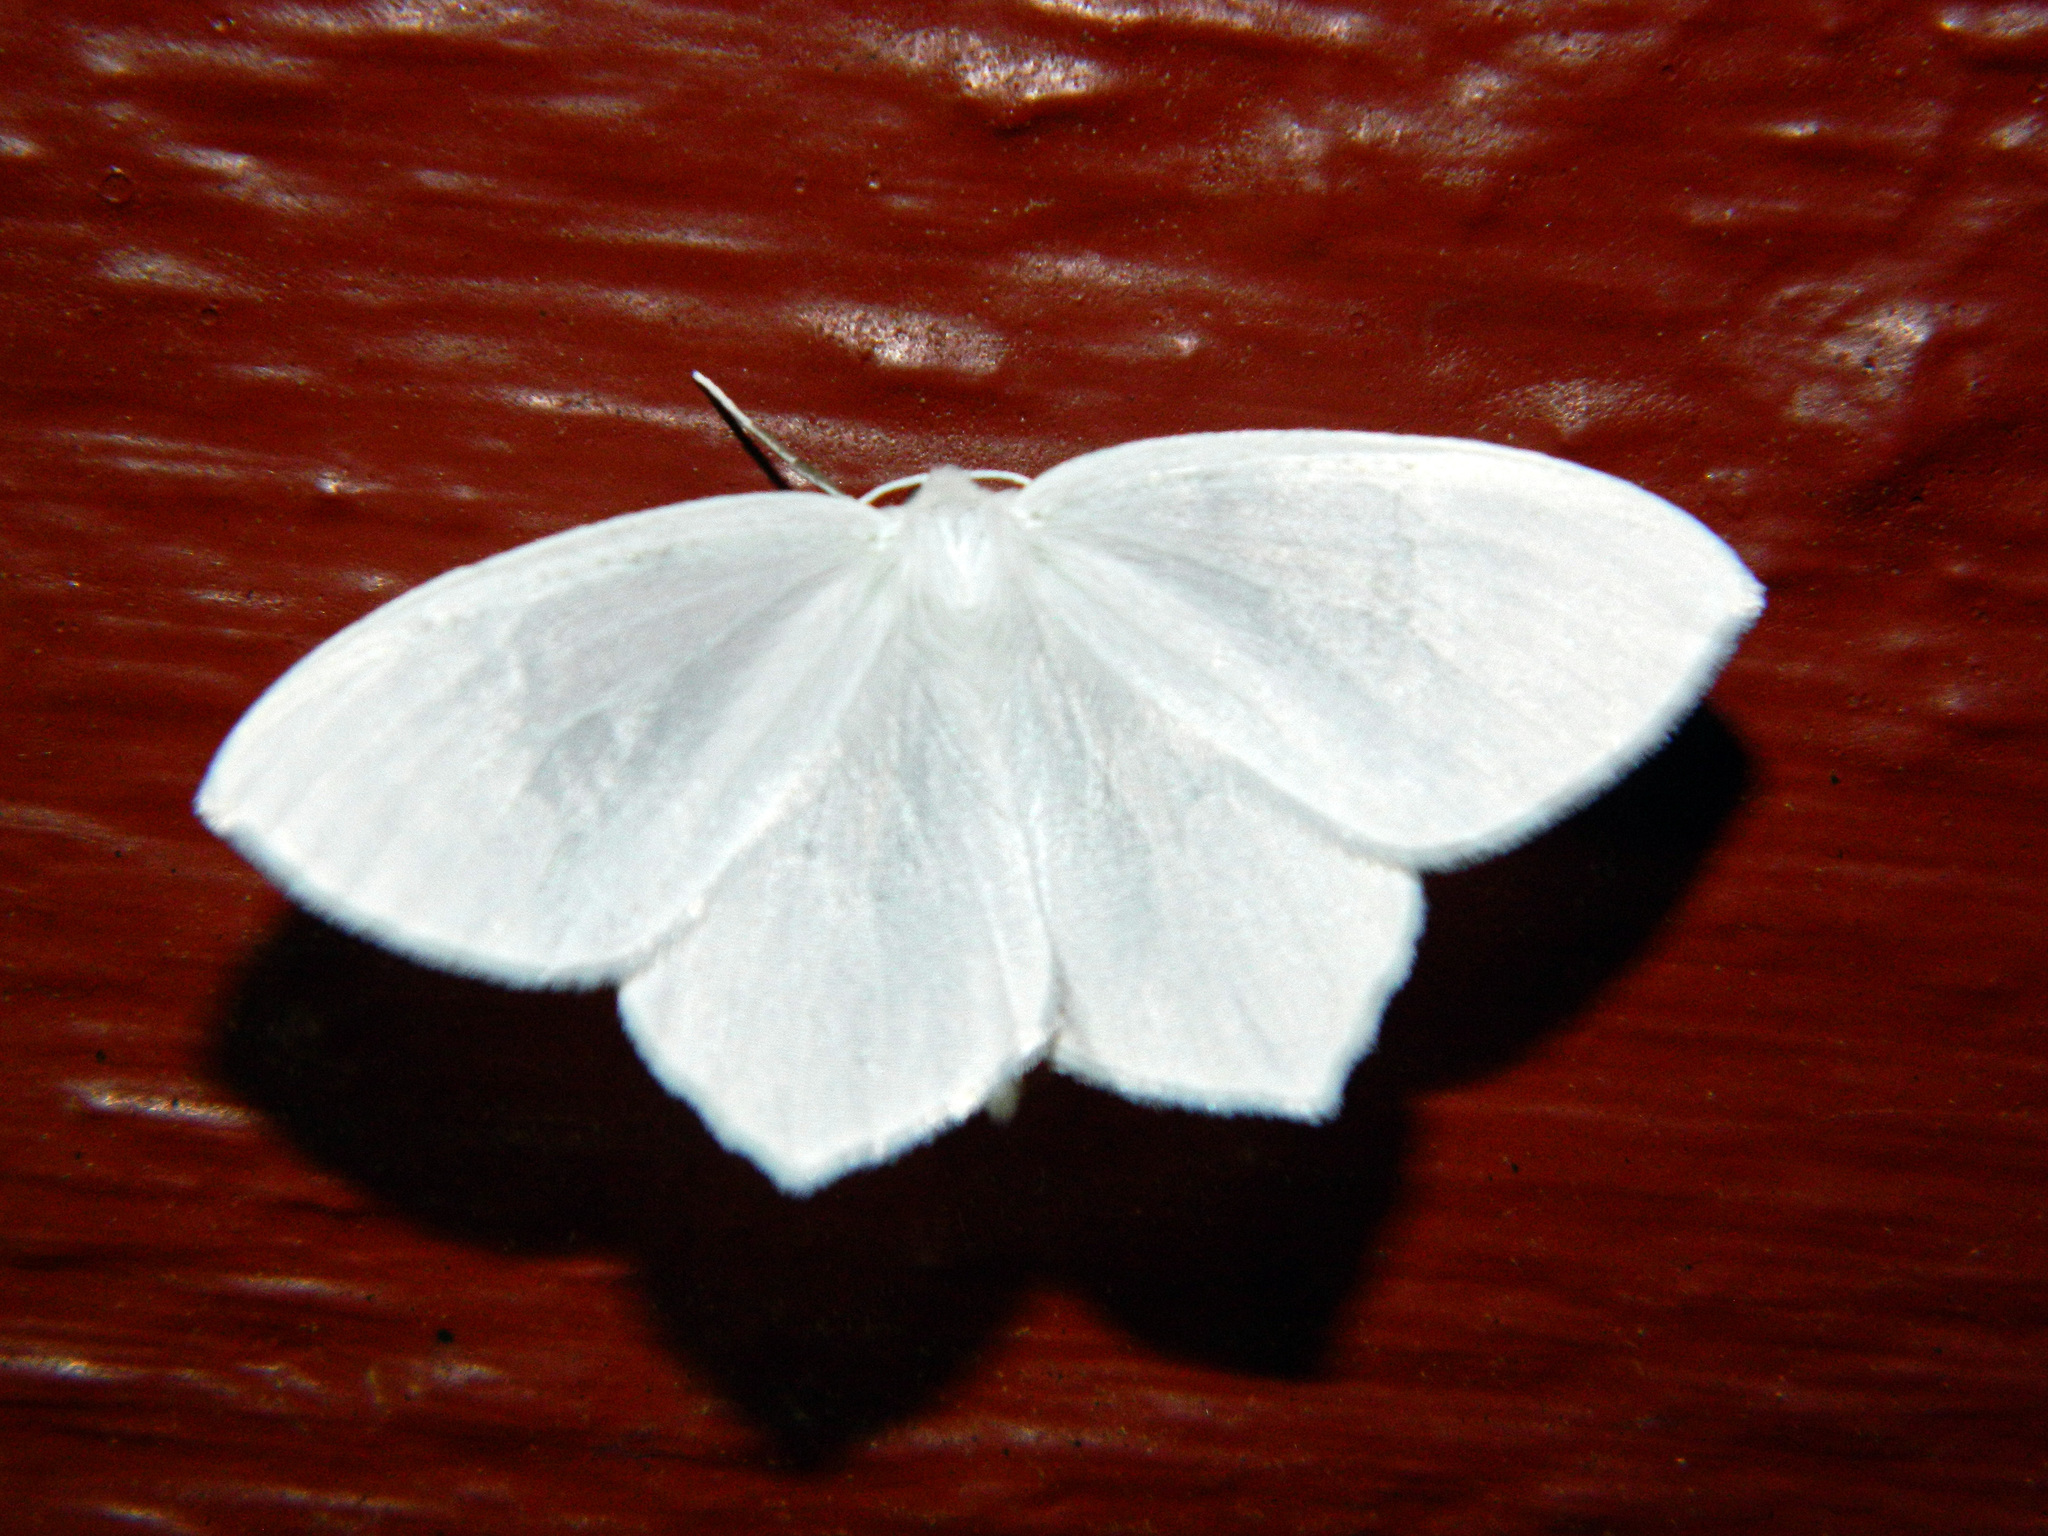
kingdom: Animalia
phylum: Arthropoda
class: Insecta
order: Lepidoptera
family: Geometridae
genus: Eugonobapta
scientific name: Eugonobapta nivosaria
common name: Snowy geometer
